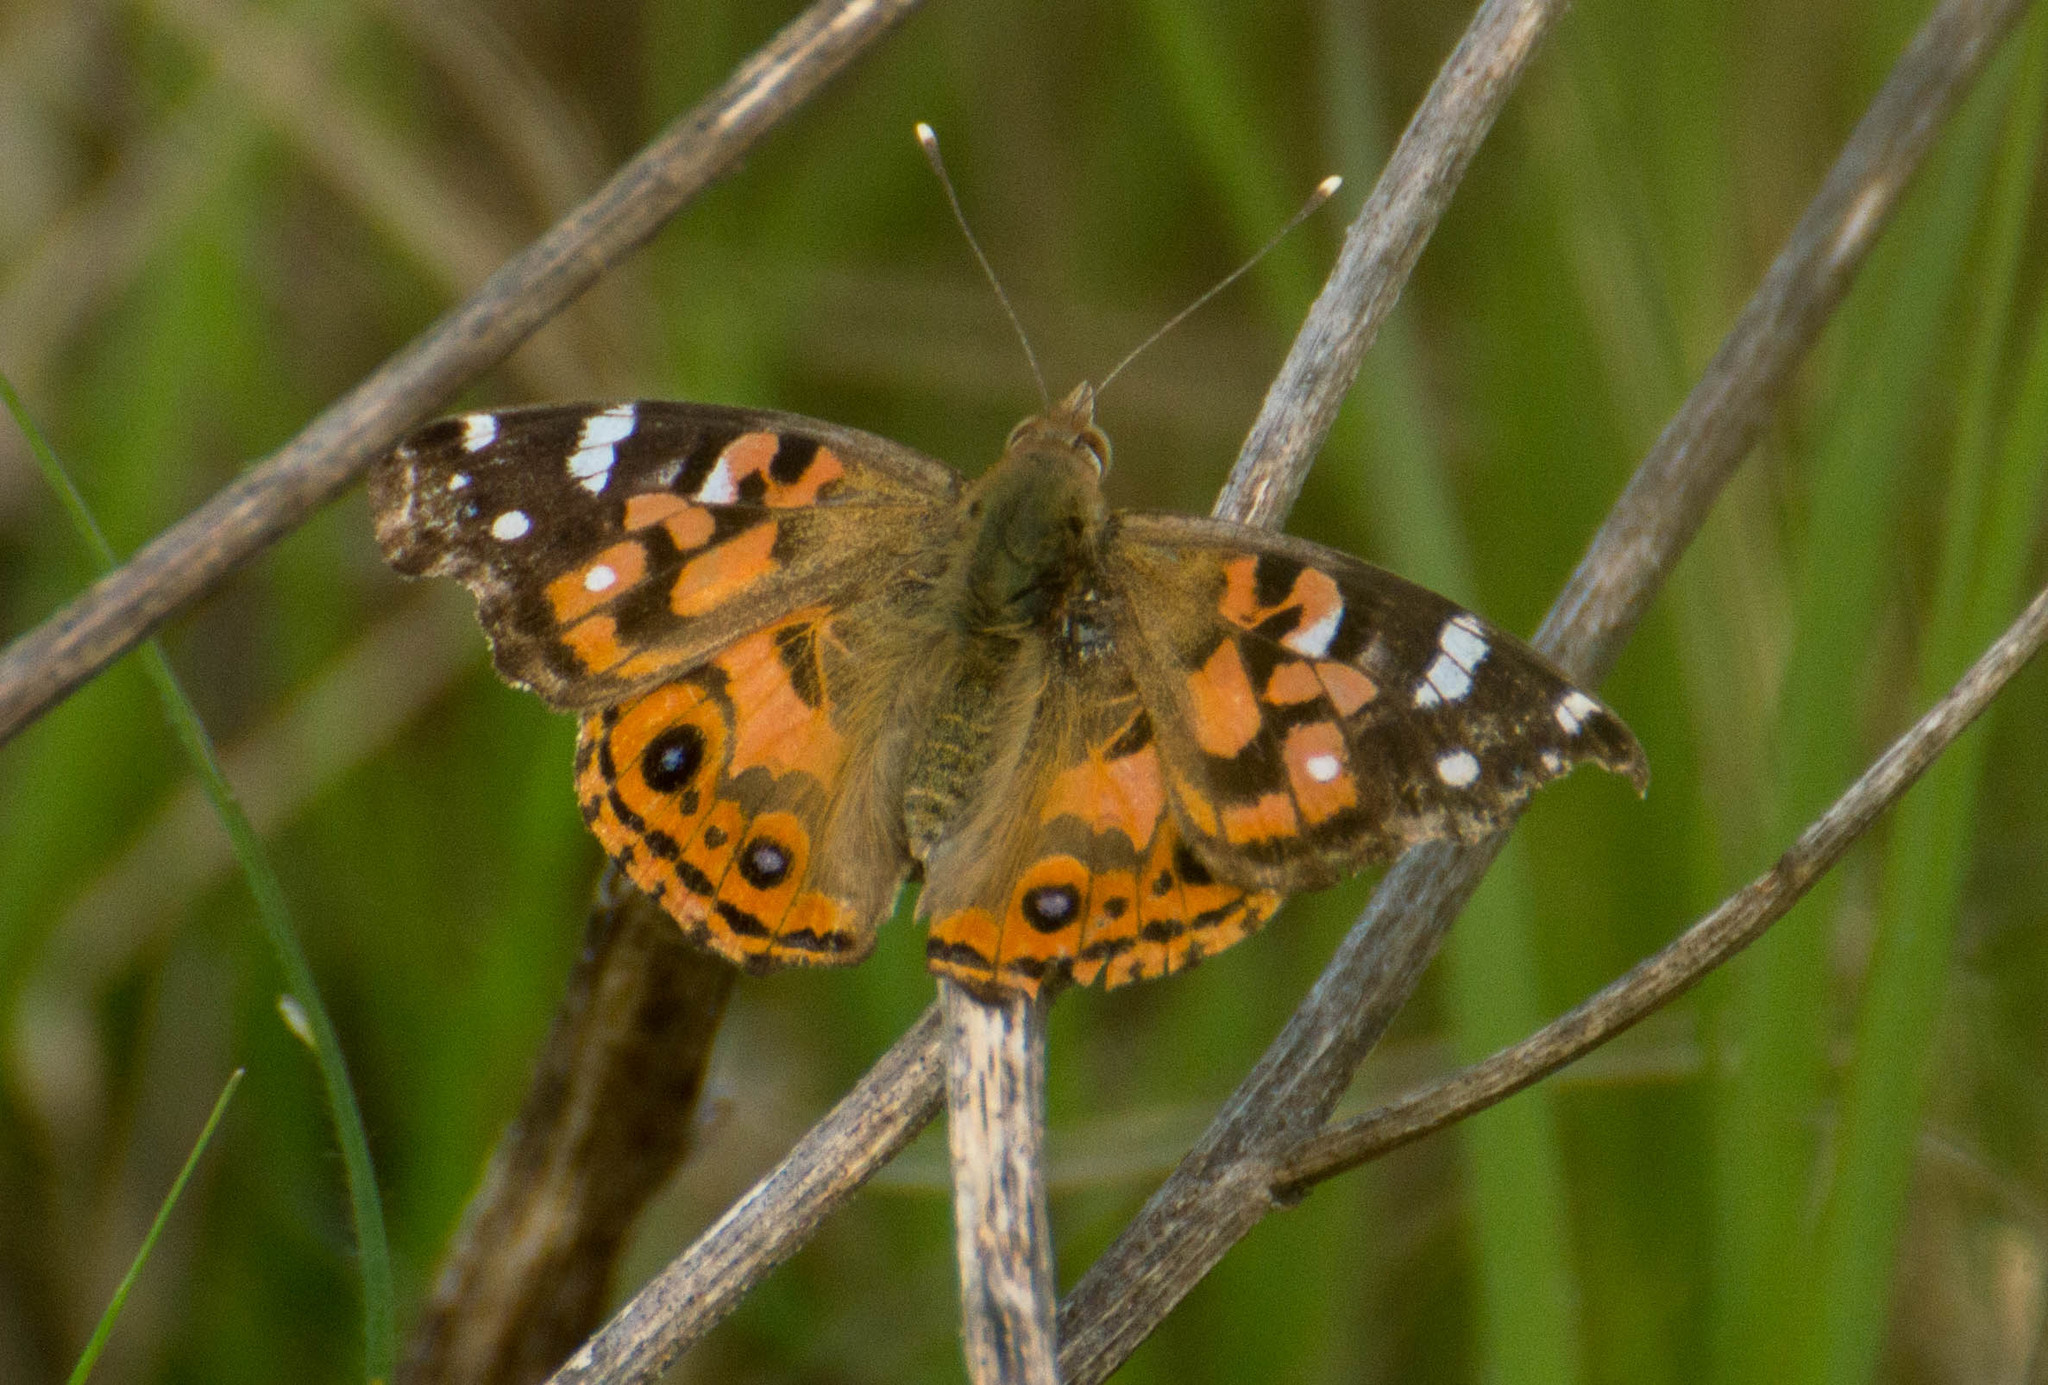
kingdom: Animalia
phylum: Arthropoda
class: Insecta
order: Lepidoptera
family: Nymphalidae
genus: Vanessa
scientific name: Vanessa braziliensis
